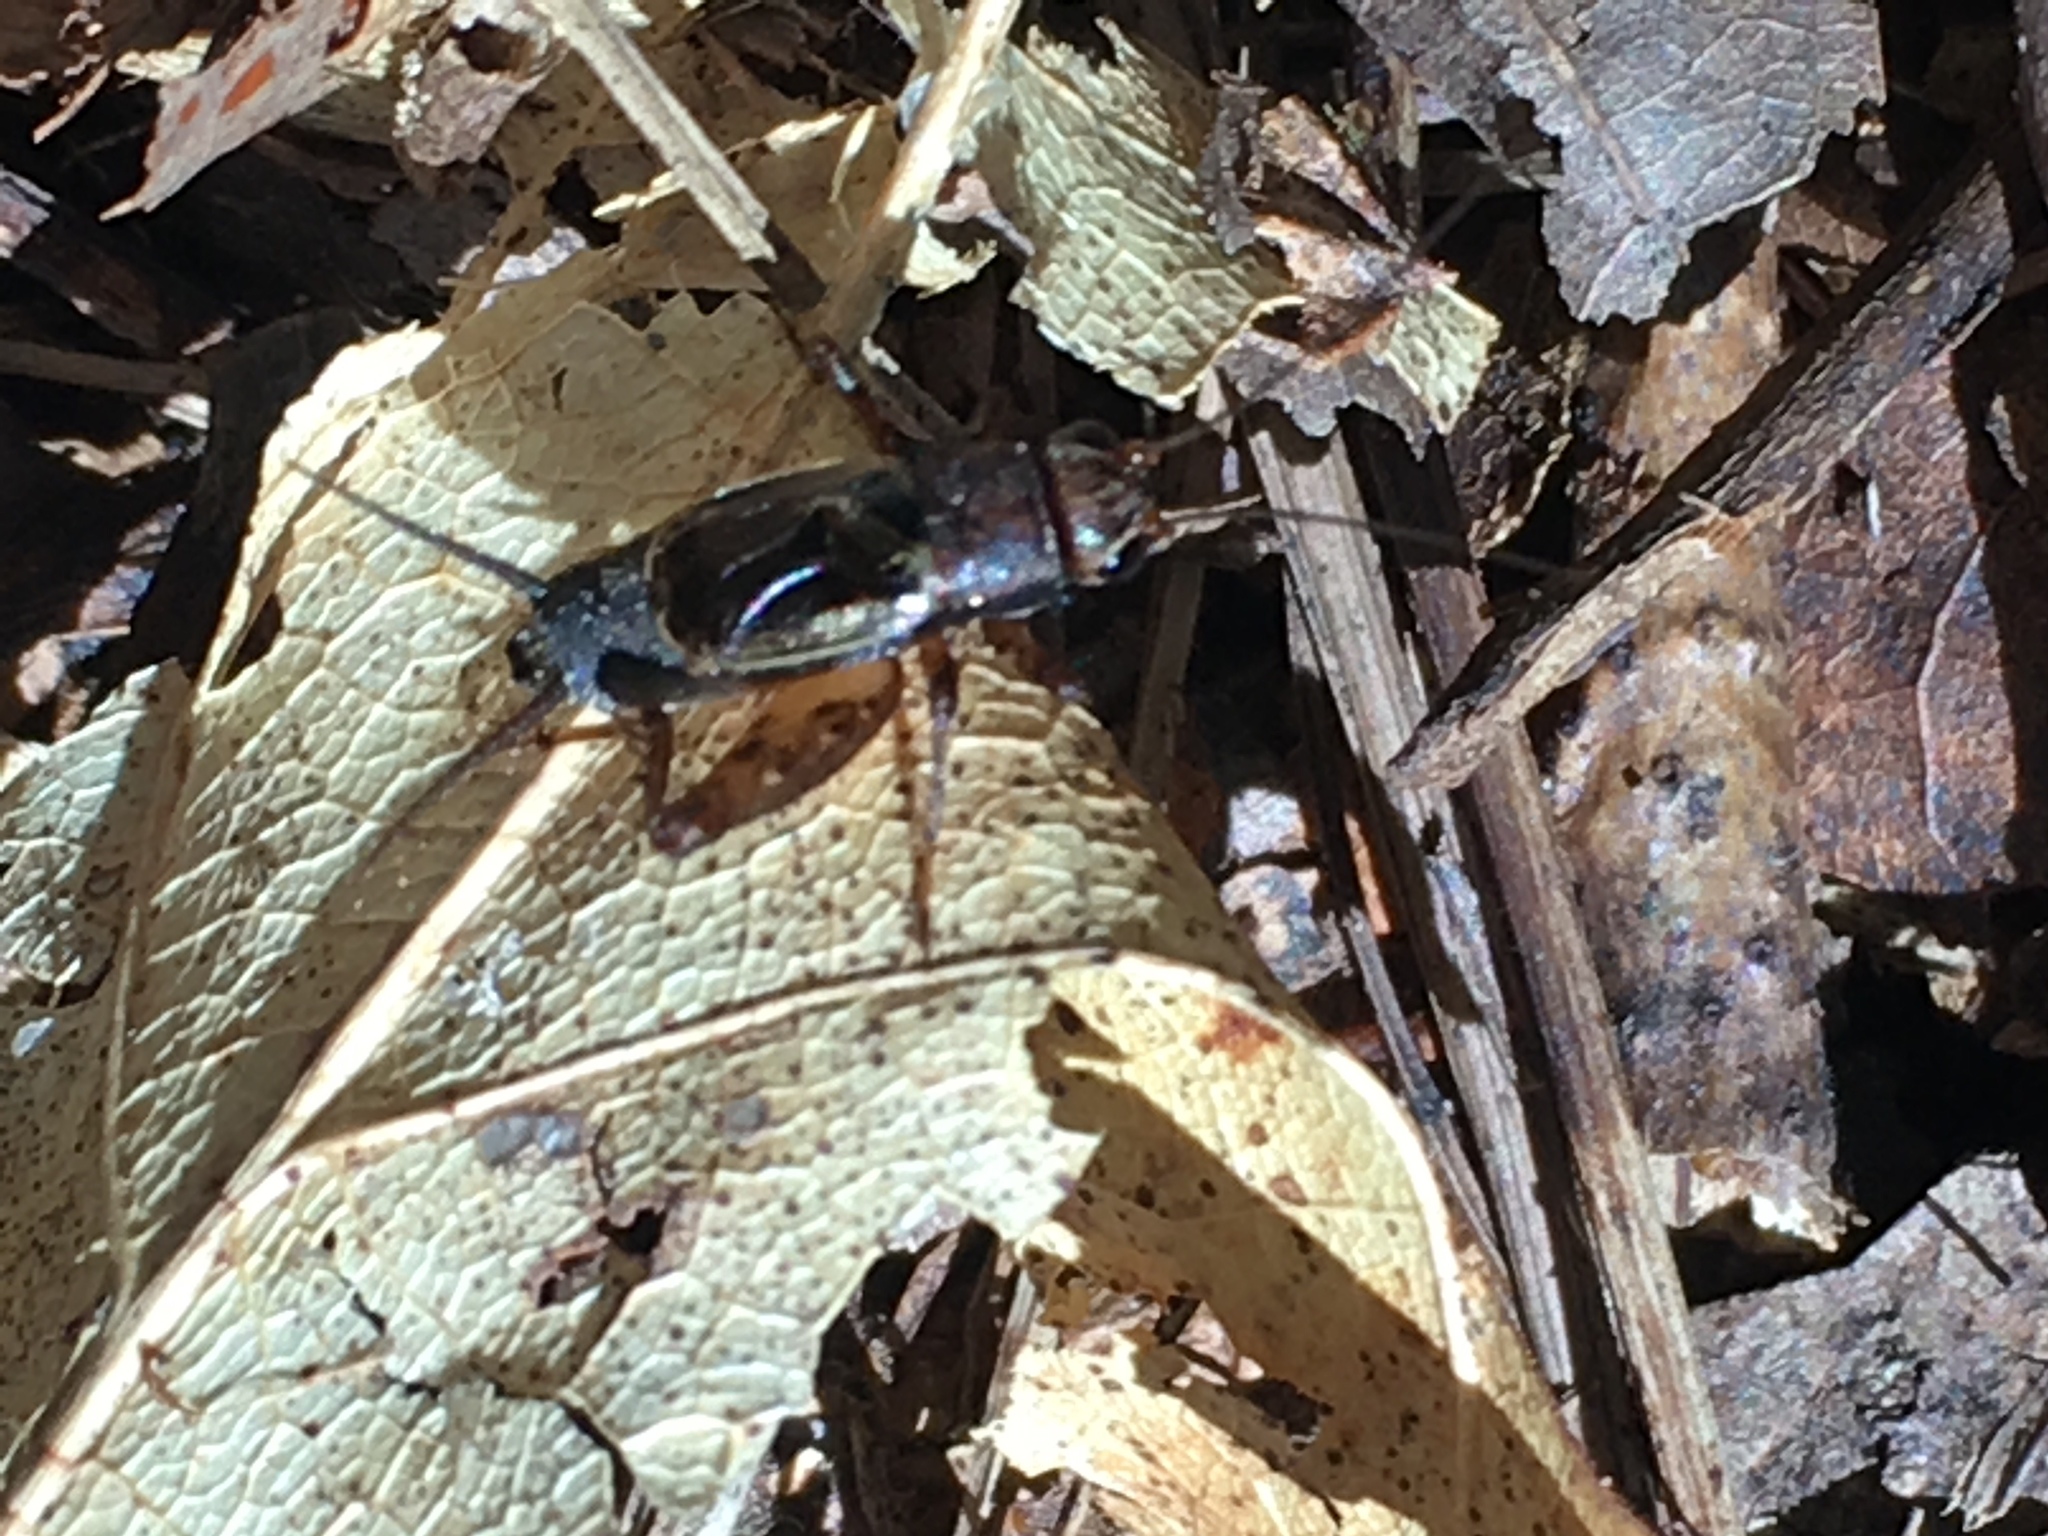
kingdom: Animalia
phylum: Arthropoda
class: Insecta
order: Orthoptera
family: Trigonidiidae
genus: Allonemobius
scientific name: Allonemobius maculatus
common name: Larger spotted ground cricket
